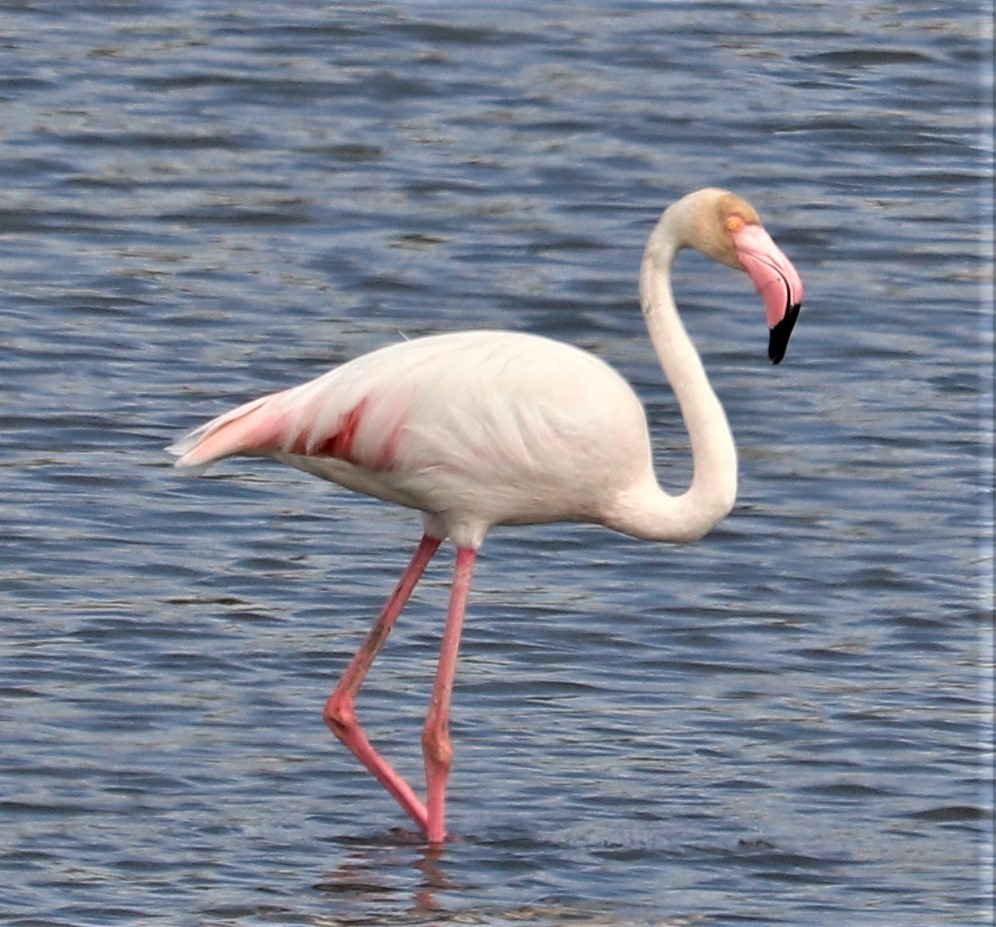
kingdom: Animalia
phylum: Chordata
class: Aves
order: Phoenicopteriformes
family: Phoenicopteridae
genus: Phoenicopterus
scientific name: Phoenicopterus roseus
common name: Greater flamingo
